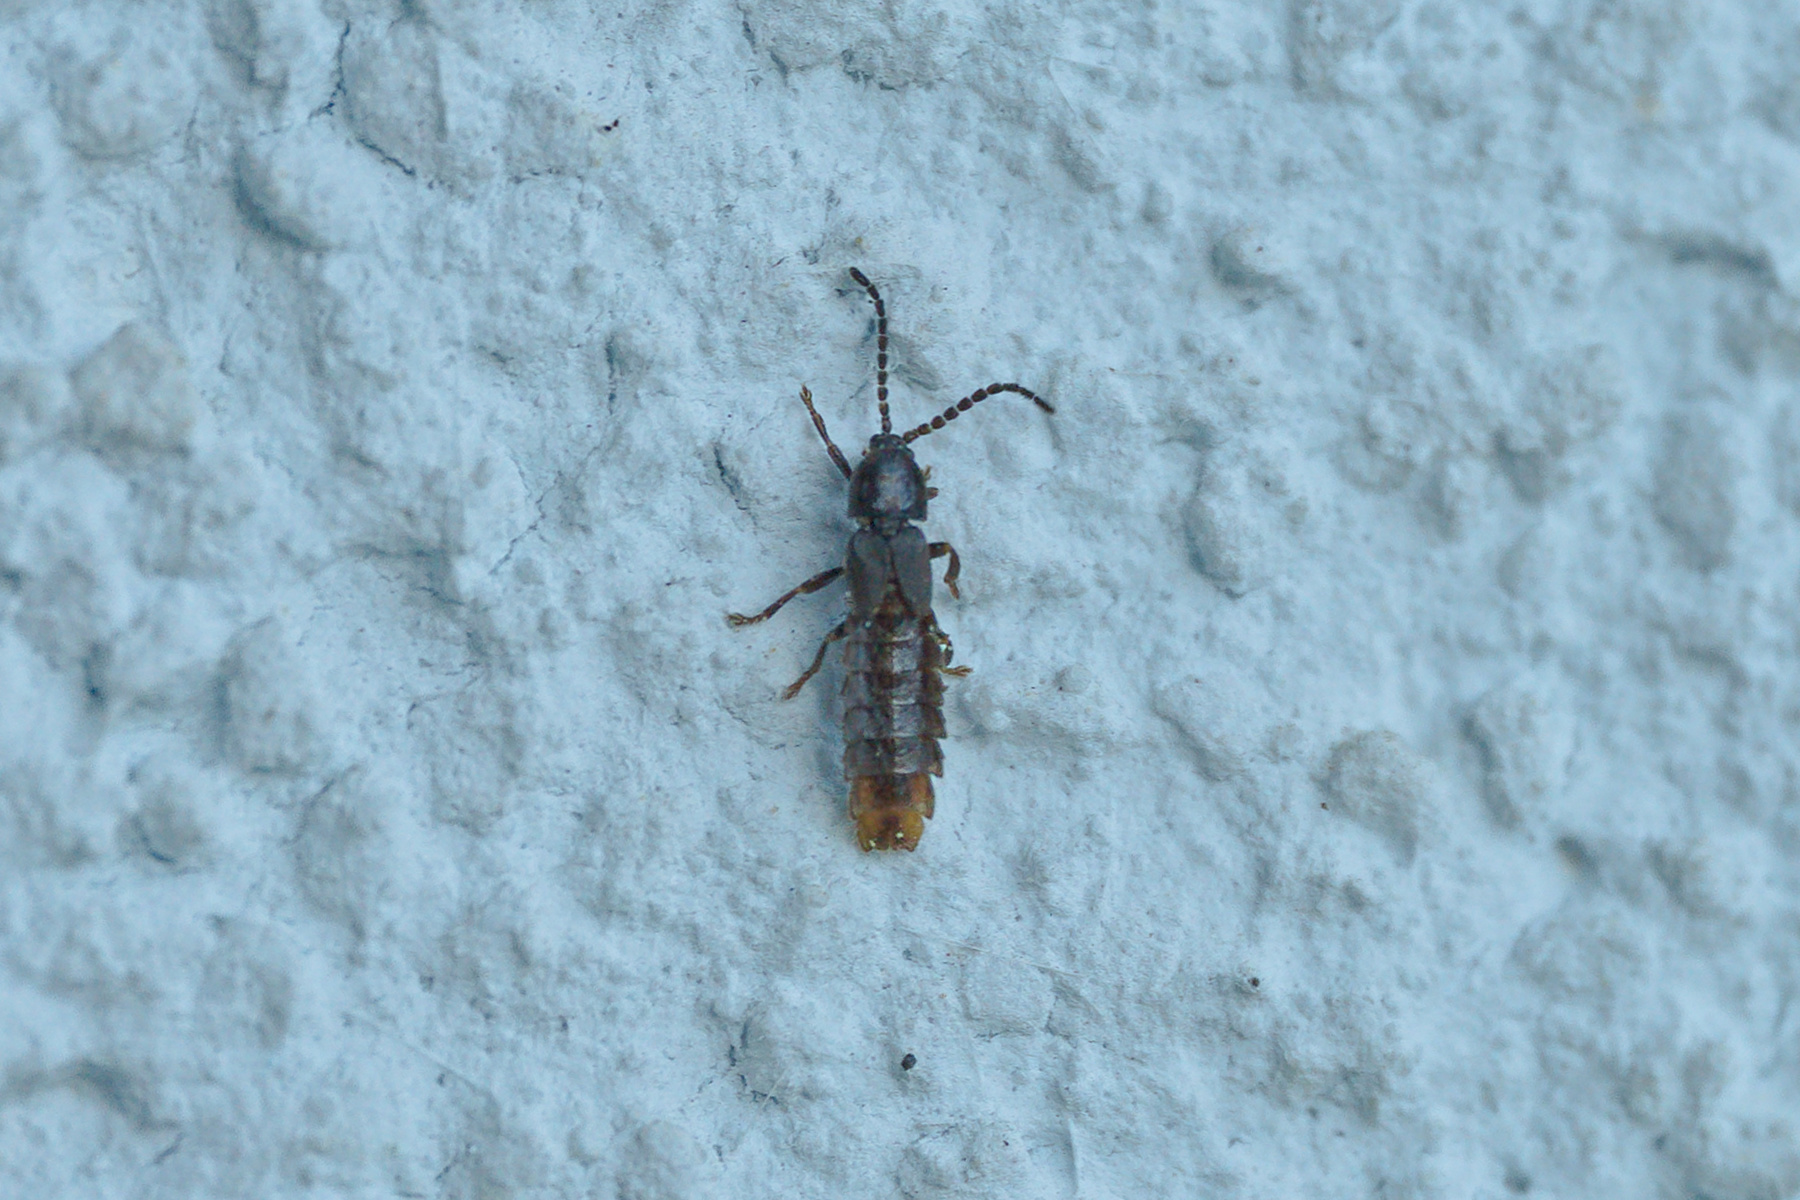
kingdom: Animalia
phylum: Arthropoda
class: Insecta
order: Coleoptera
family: Lampyridae
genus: Phosphaenus
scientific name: Phosphaenus hemipterus
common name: Short-winged firefly
